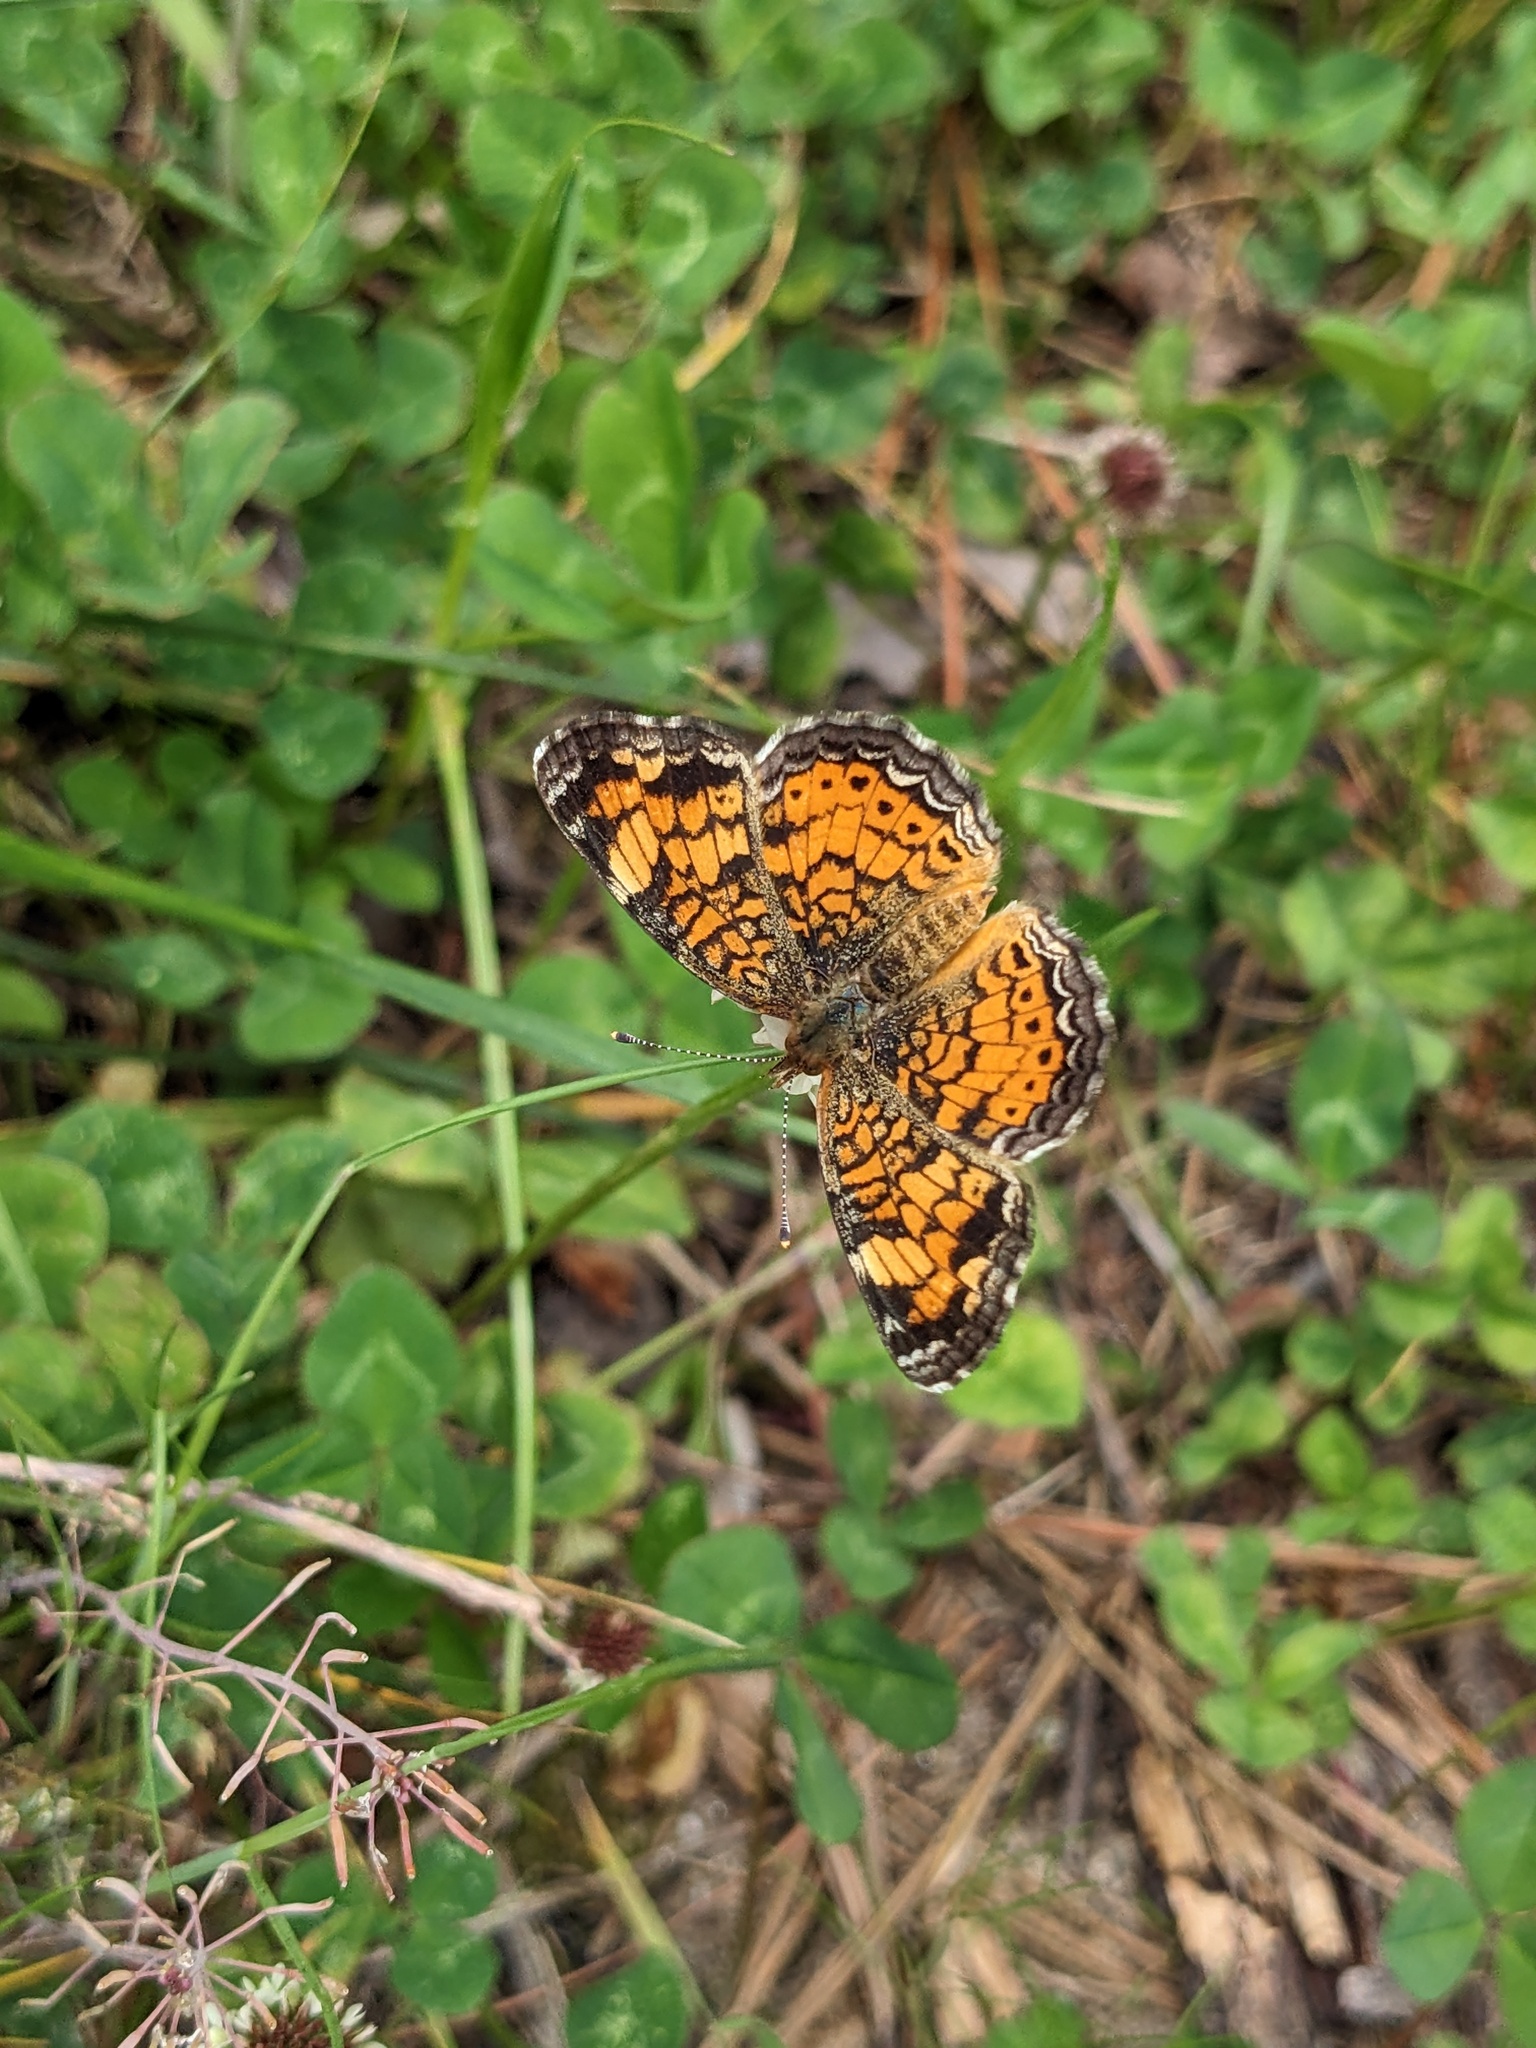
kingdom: Animalia
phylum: Arthropoda
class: Insecta
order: Lepidoptera
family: Nymphalidae
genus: Phyciodes
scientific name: Phyciodes tharos
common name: Pearl crescent
